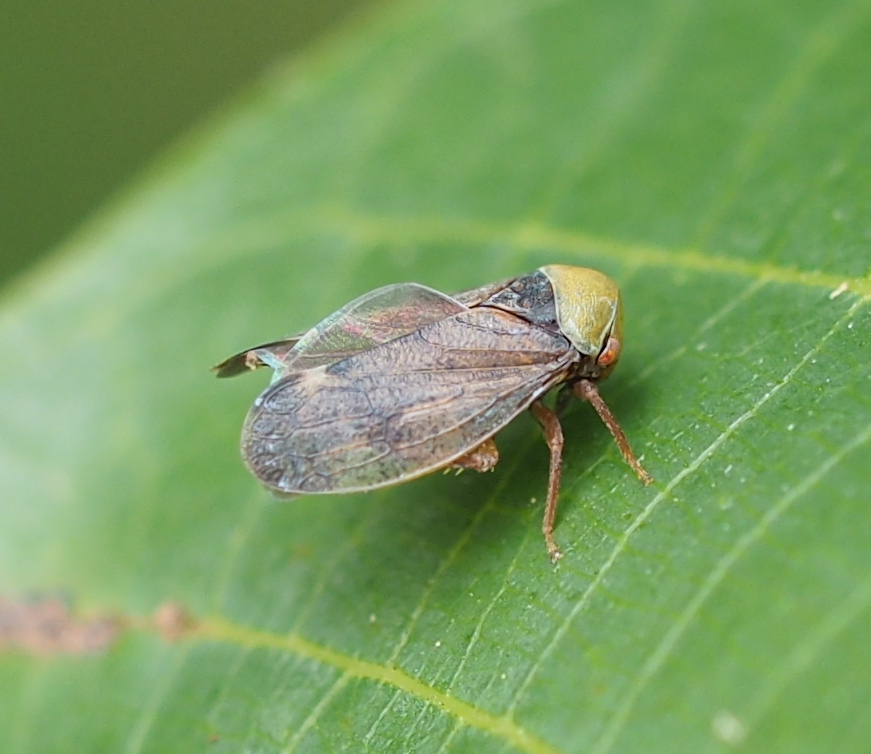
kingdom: Animalia
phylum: Arthropoda
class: Insecta
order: Hemiptera
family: Cicadellidae
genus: Pediopsis
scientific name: Pediopsis tiliae
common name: Leafhopper
